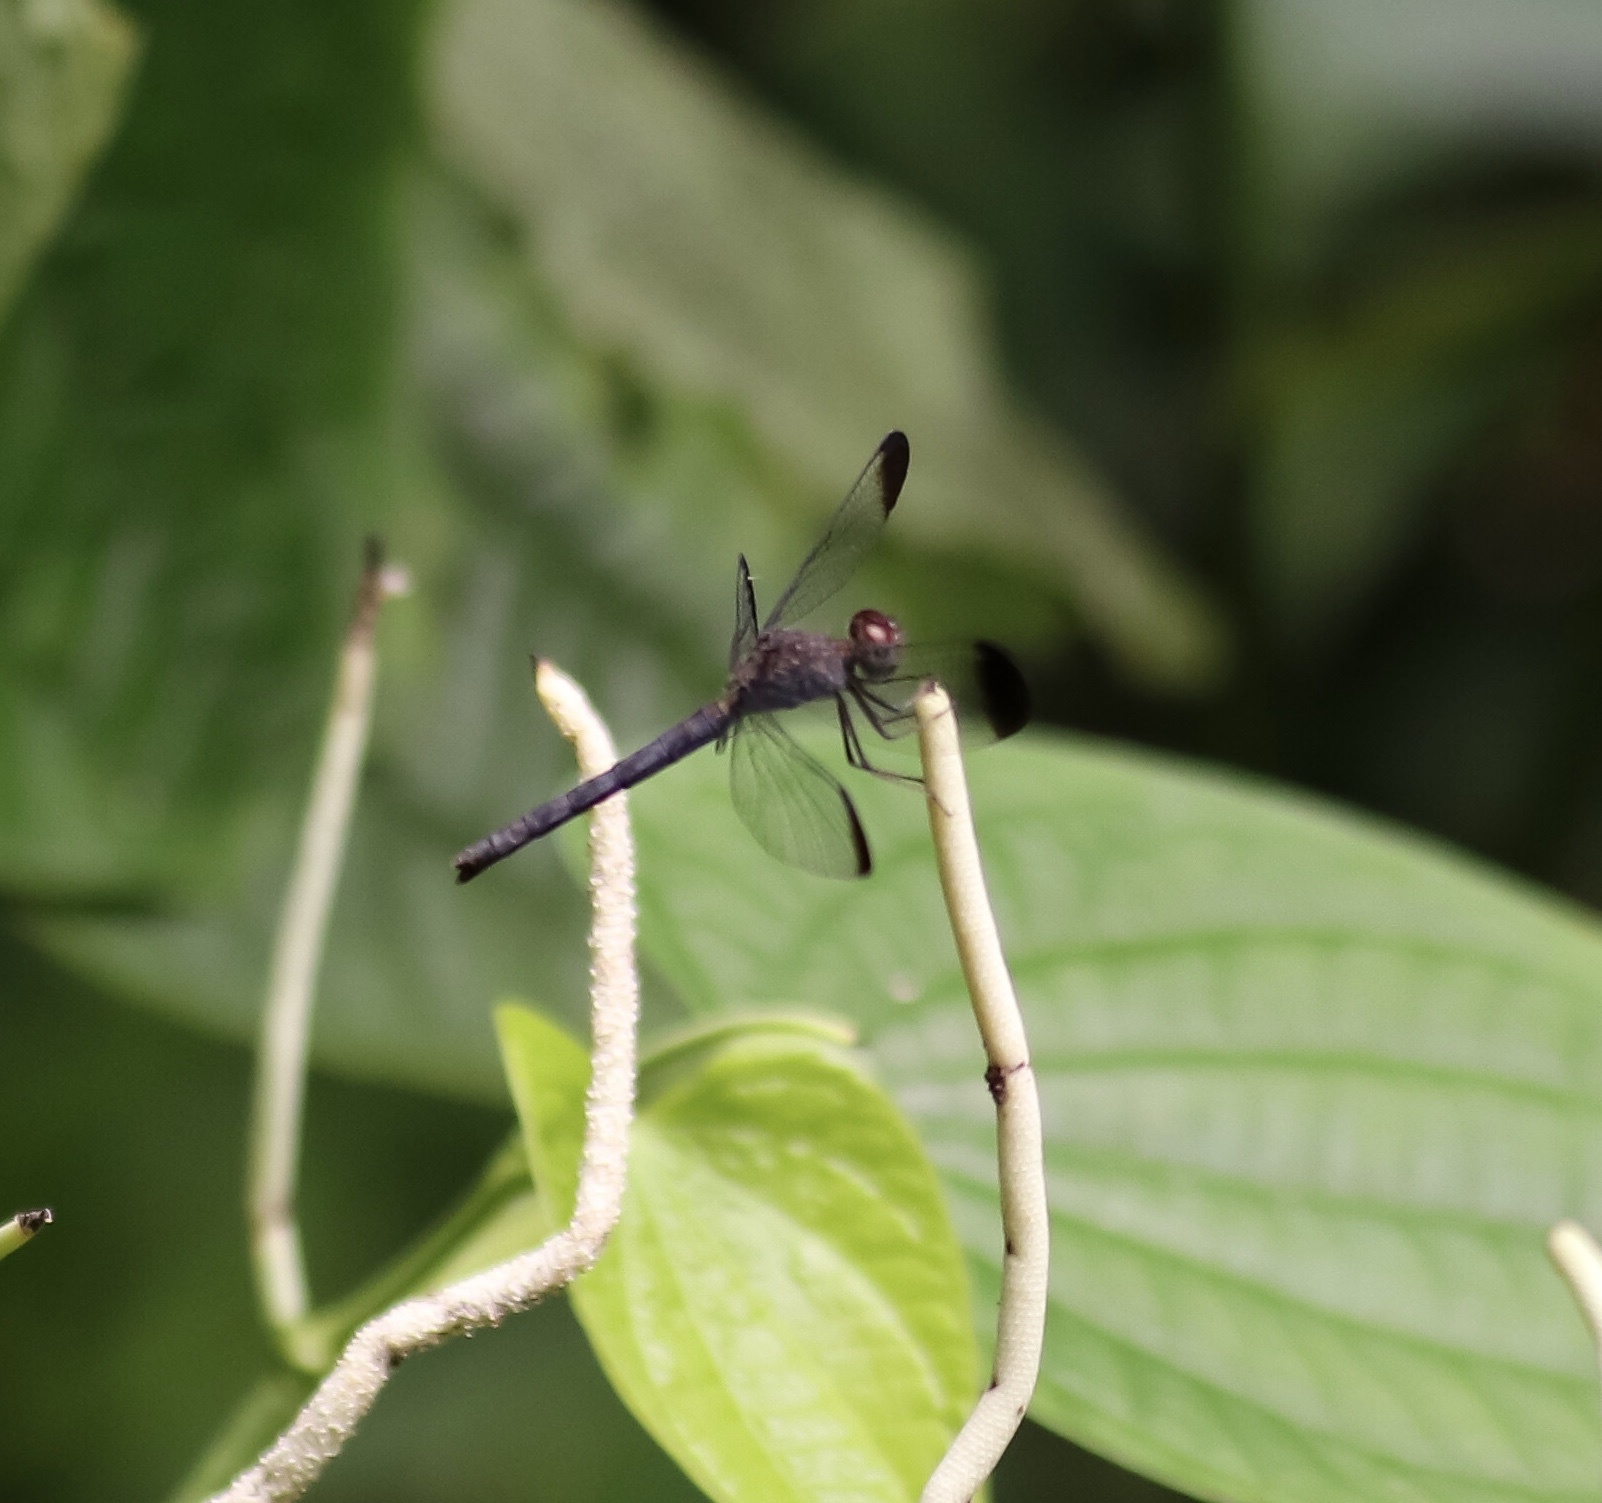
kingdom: Animalia
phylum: Arthropoda
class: Insecta
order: Odonata
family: Libellulidae
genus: Uracis
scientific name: Uracis imbuta
